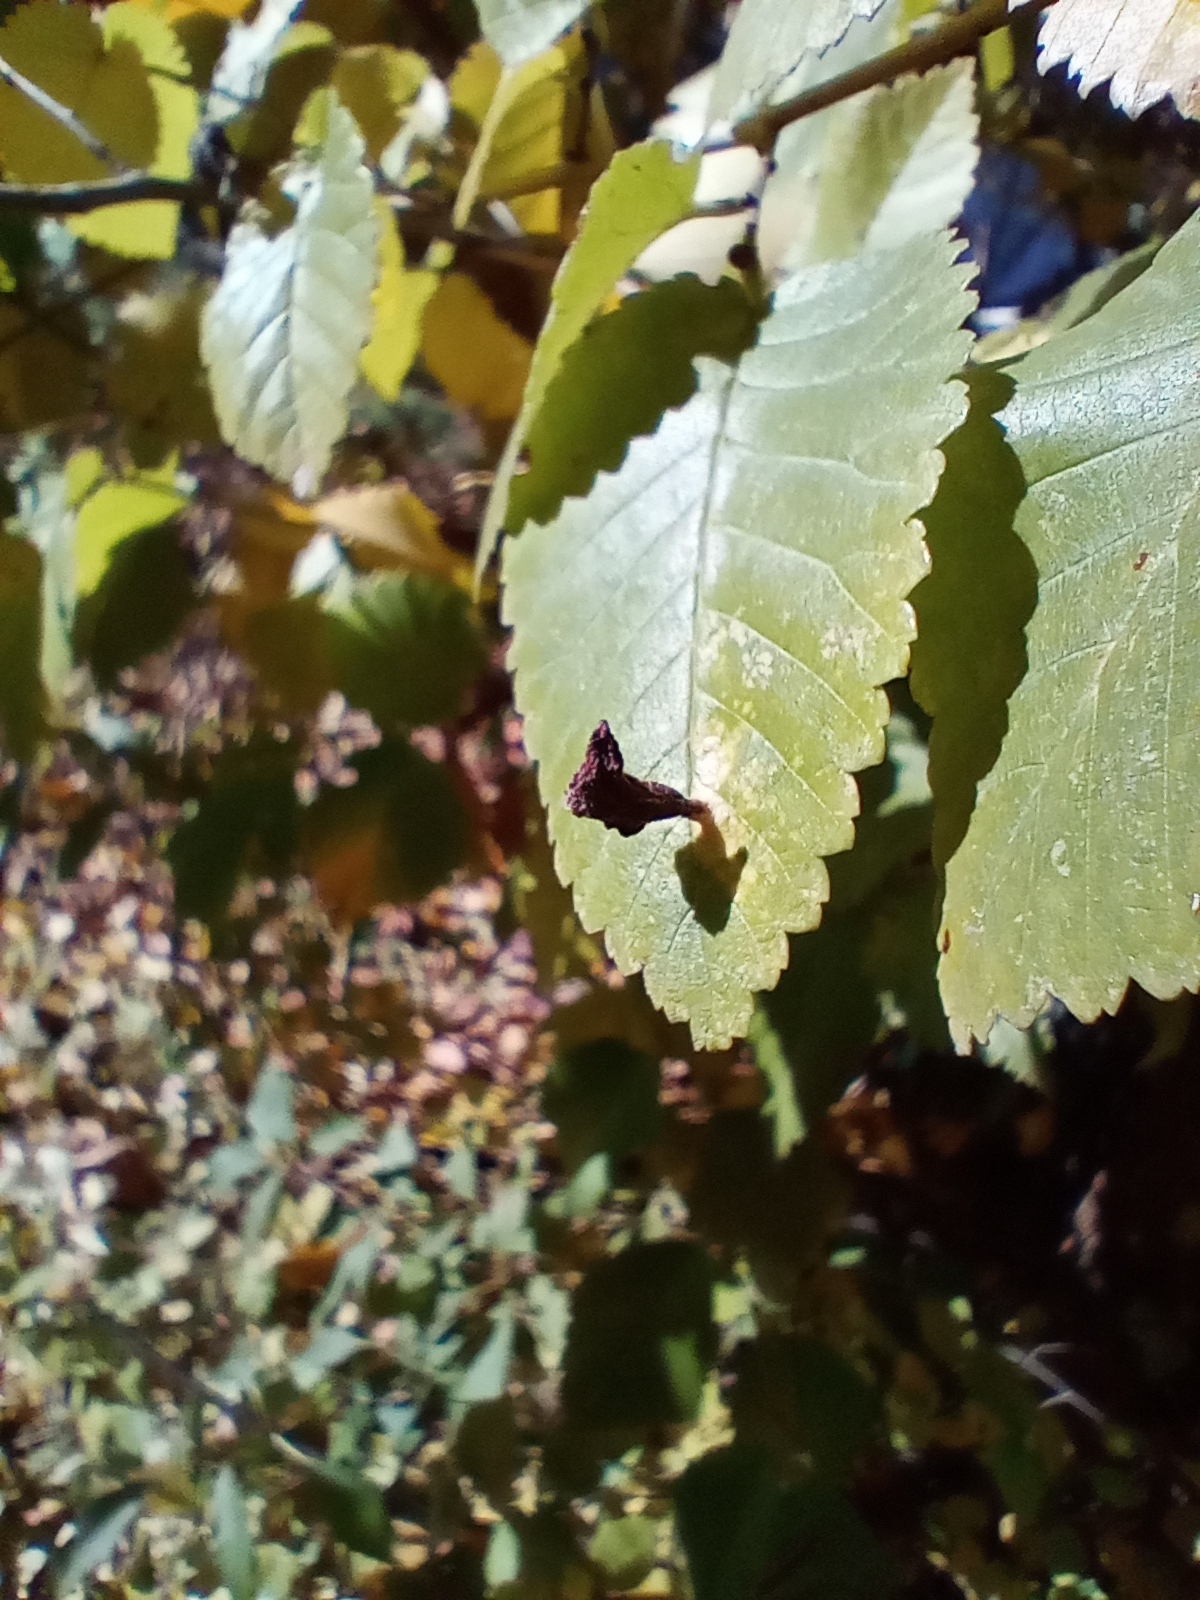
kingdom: Animalia
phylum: Arthropoda
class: Insecta
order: Hemiptera
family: Aphididae
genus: Tetraneura
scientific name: Tetraneura nigriabdominalis
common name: Aphid
